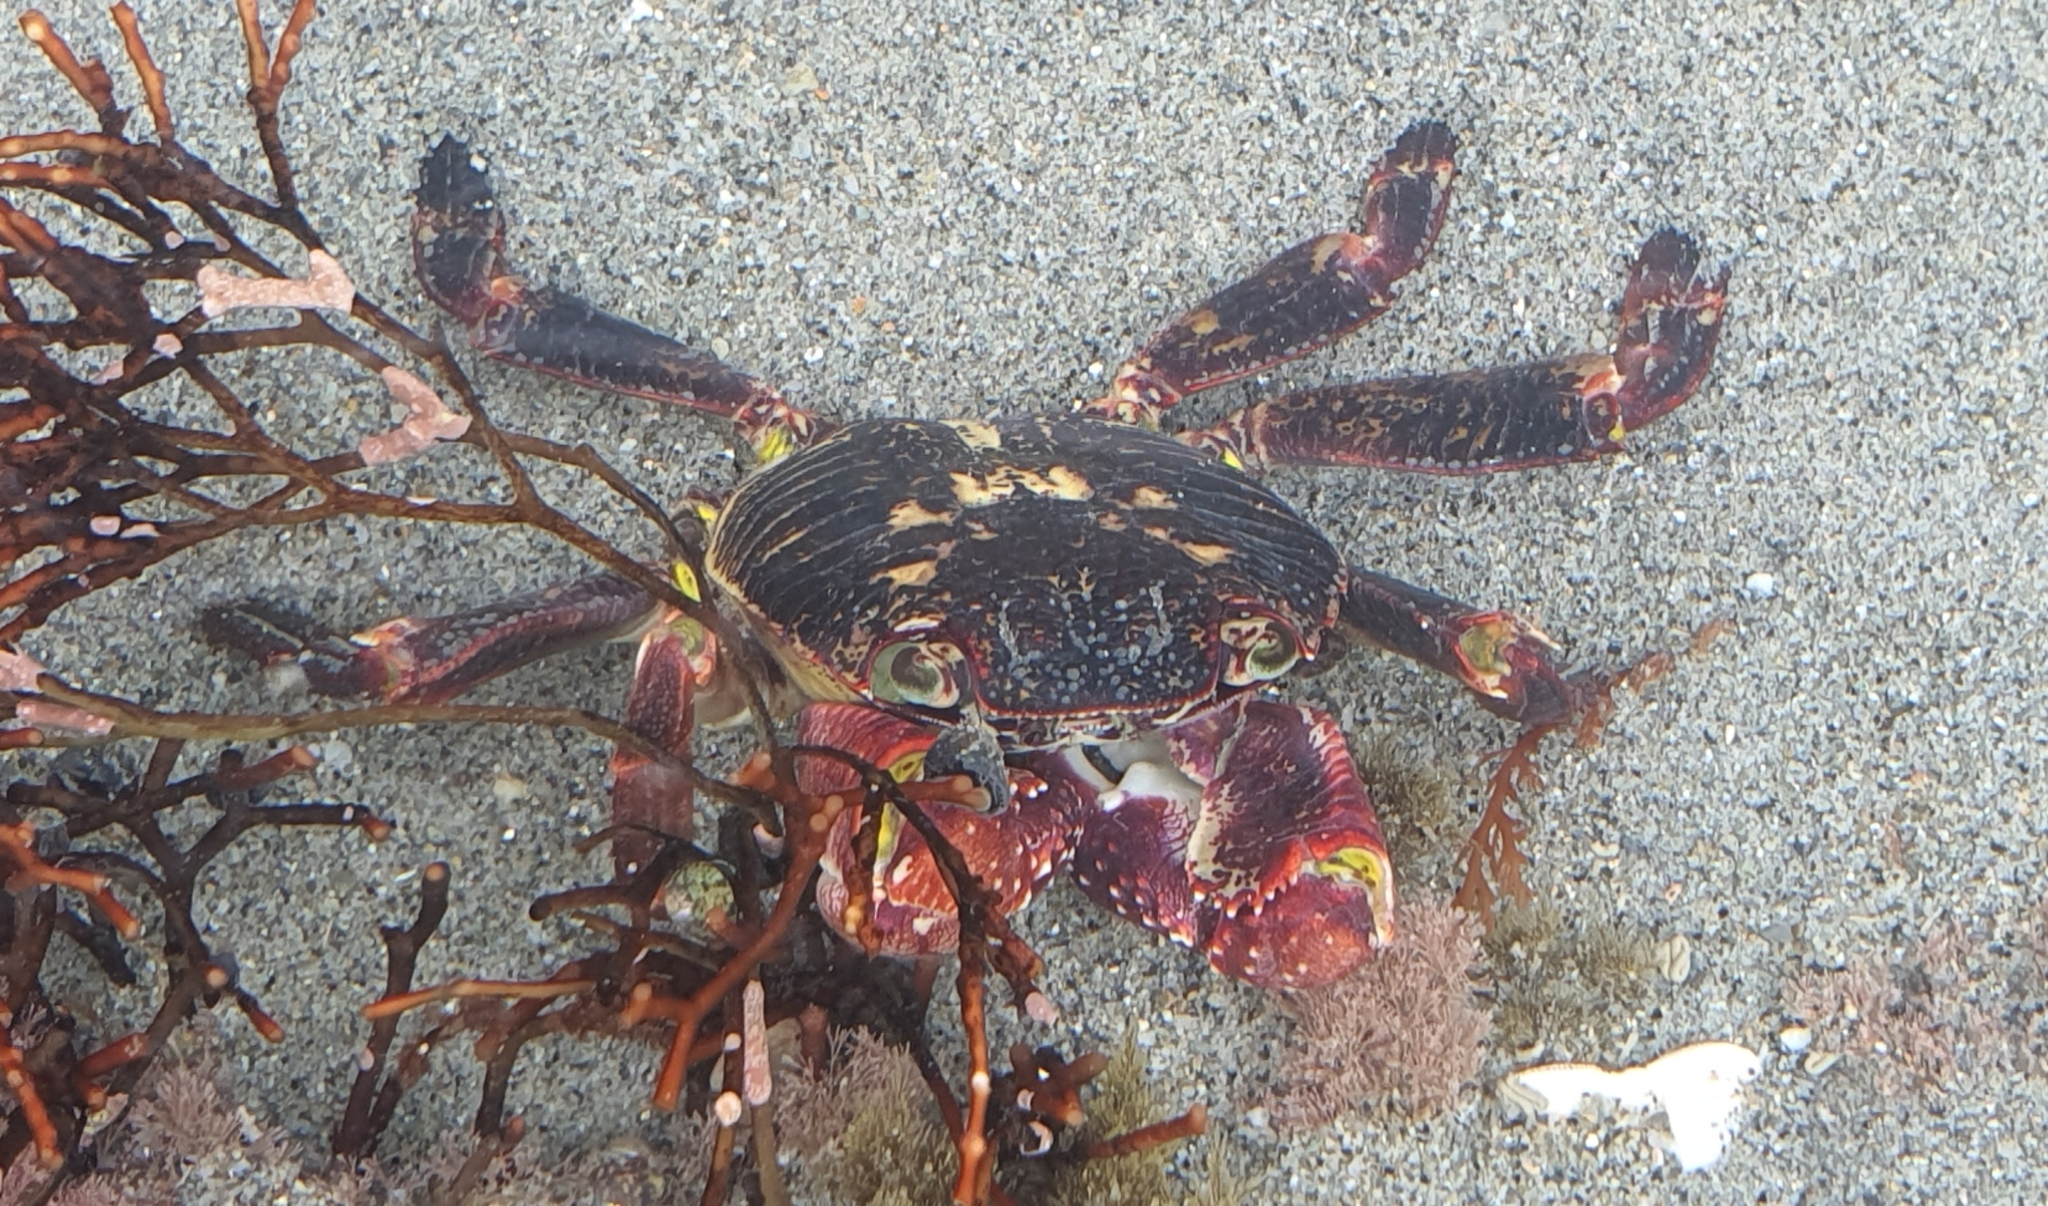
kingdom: Animalia
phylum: Arthropoda
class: Malacostraca
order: Decapoda
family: Grapsidae
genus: Leptograpsus
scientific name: Leptograpsus variegatus
